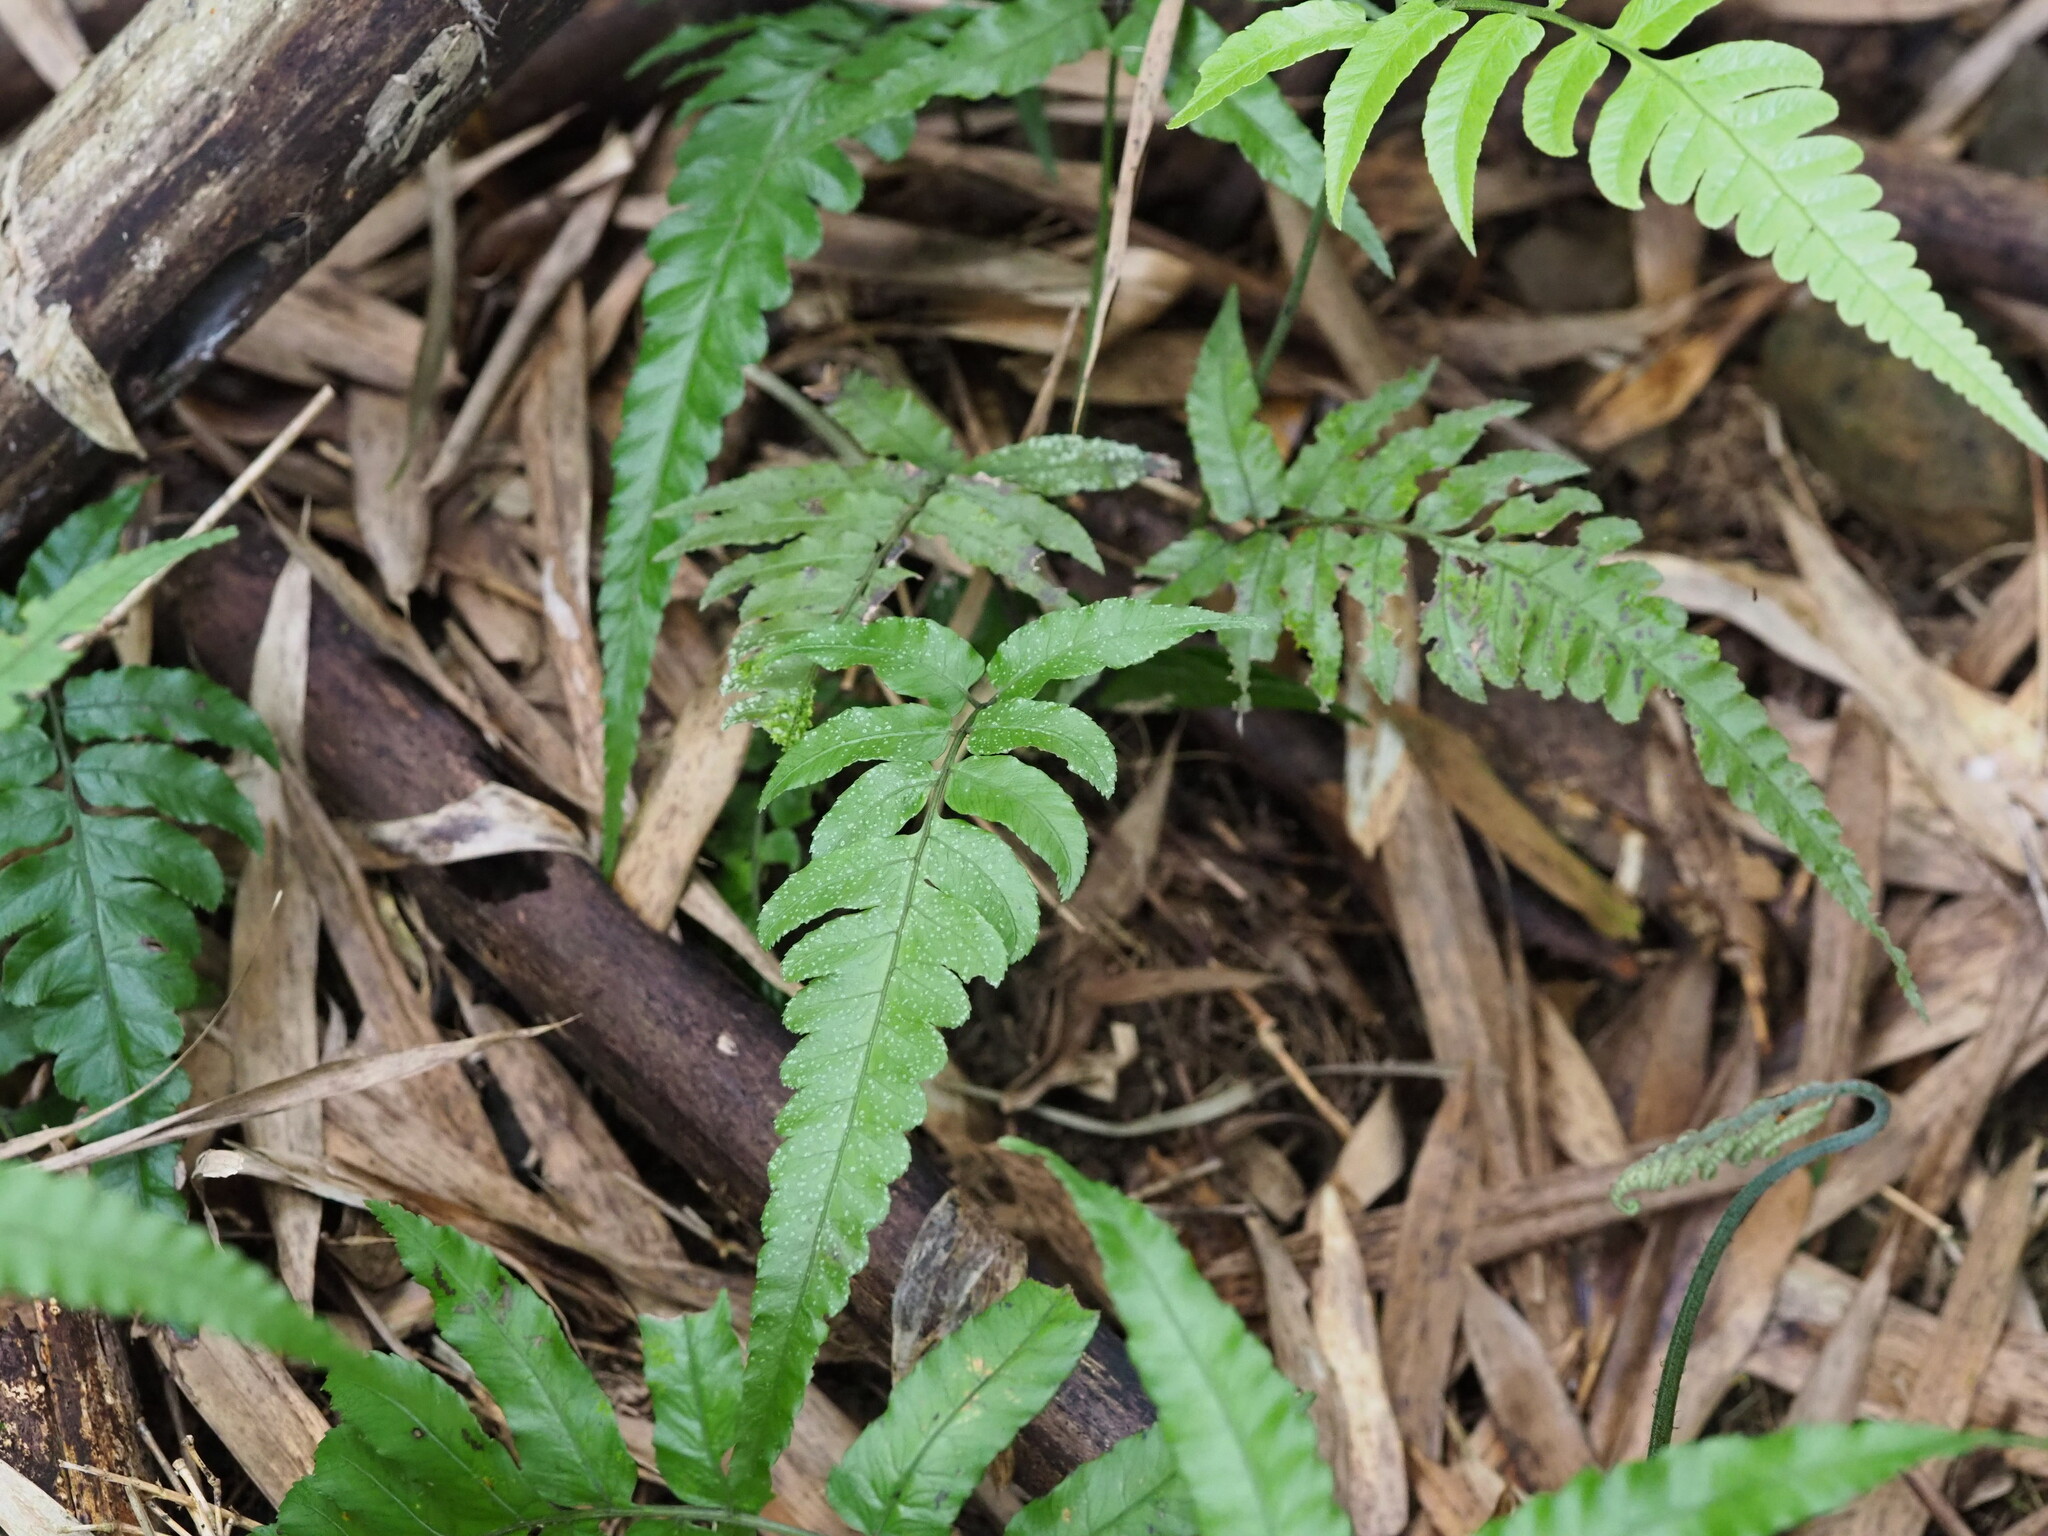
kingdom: Plantae
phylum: Tracheophyta
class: Polypodiopsida
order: Polypodiales
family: Athyriaceae
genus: Diplazium
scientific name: Diplazium dilatatum
